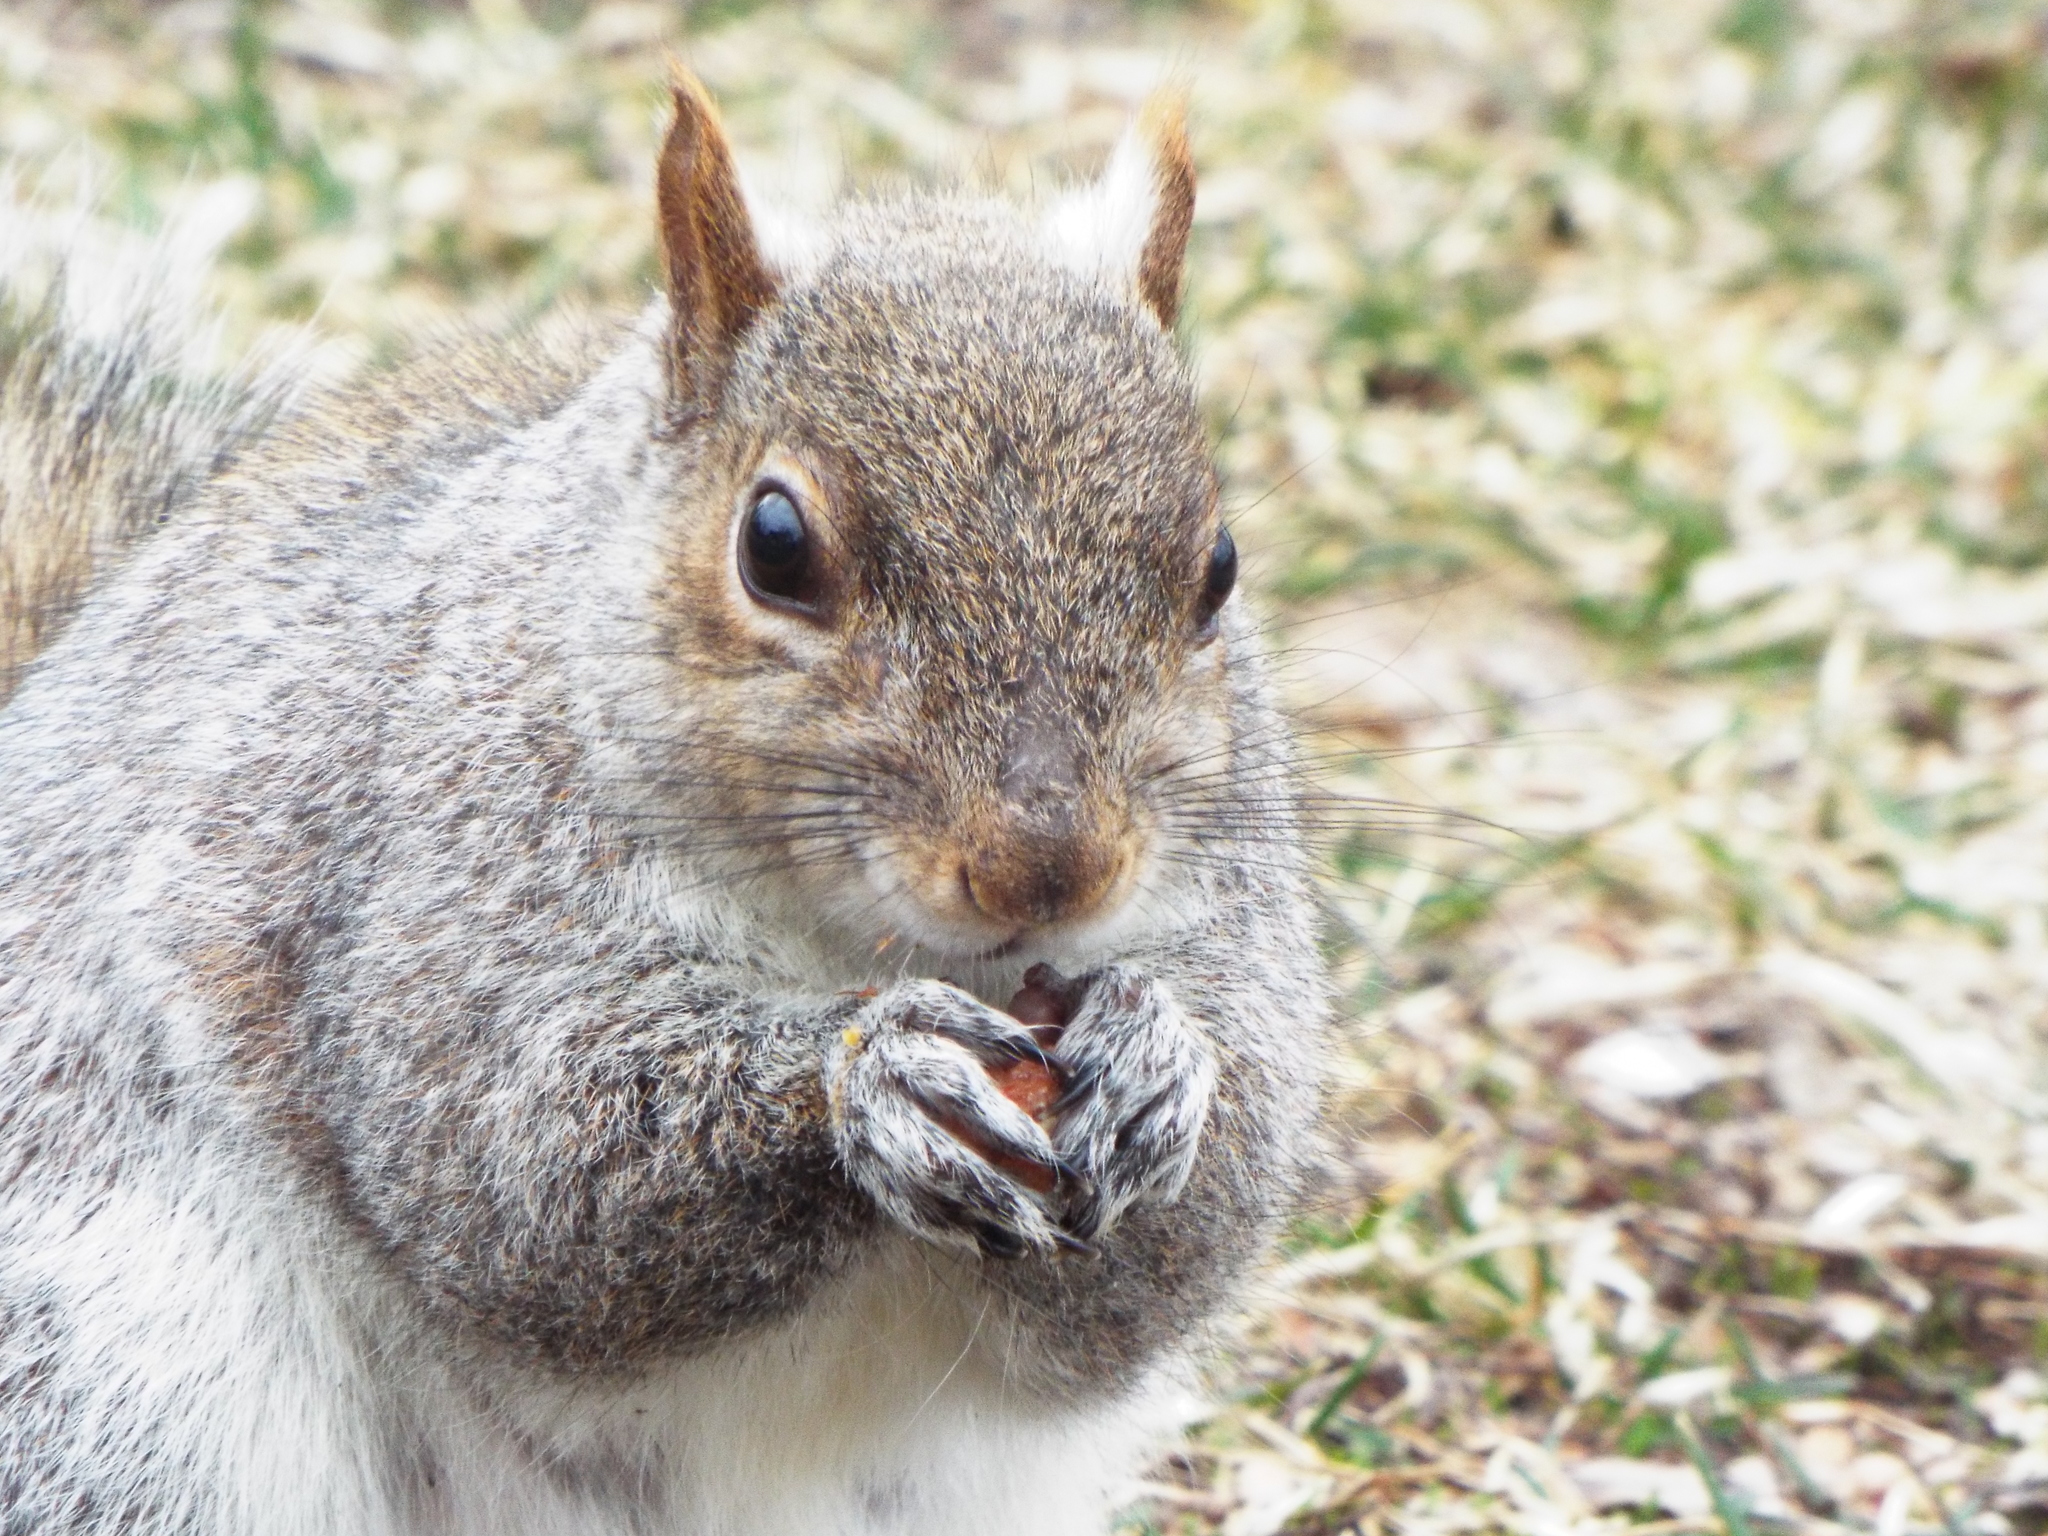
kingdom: Animalia
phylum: Chordata
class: Mammalia
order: Rodentia
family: Sciuridae
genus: Sciurus
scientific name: Sciurus carolinensis
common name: Eastern gray squirrel
